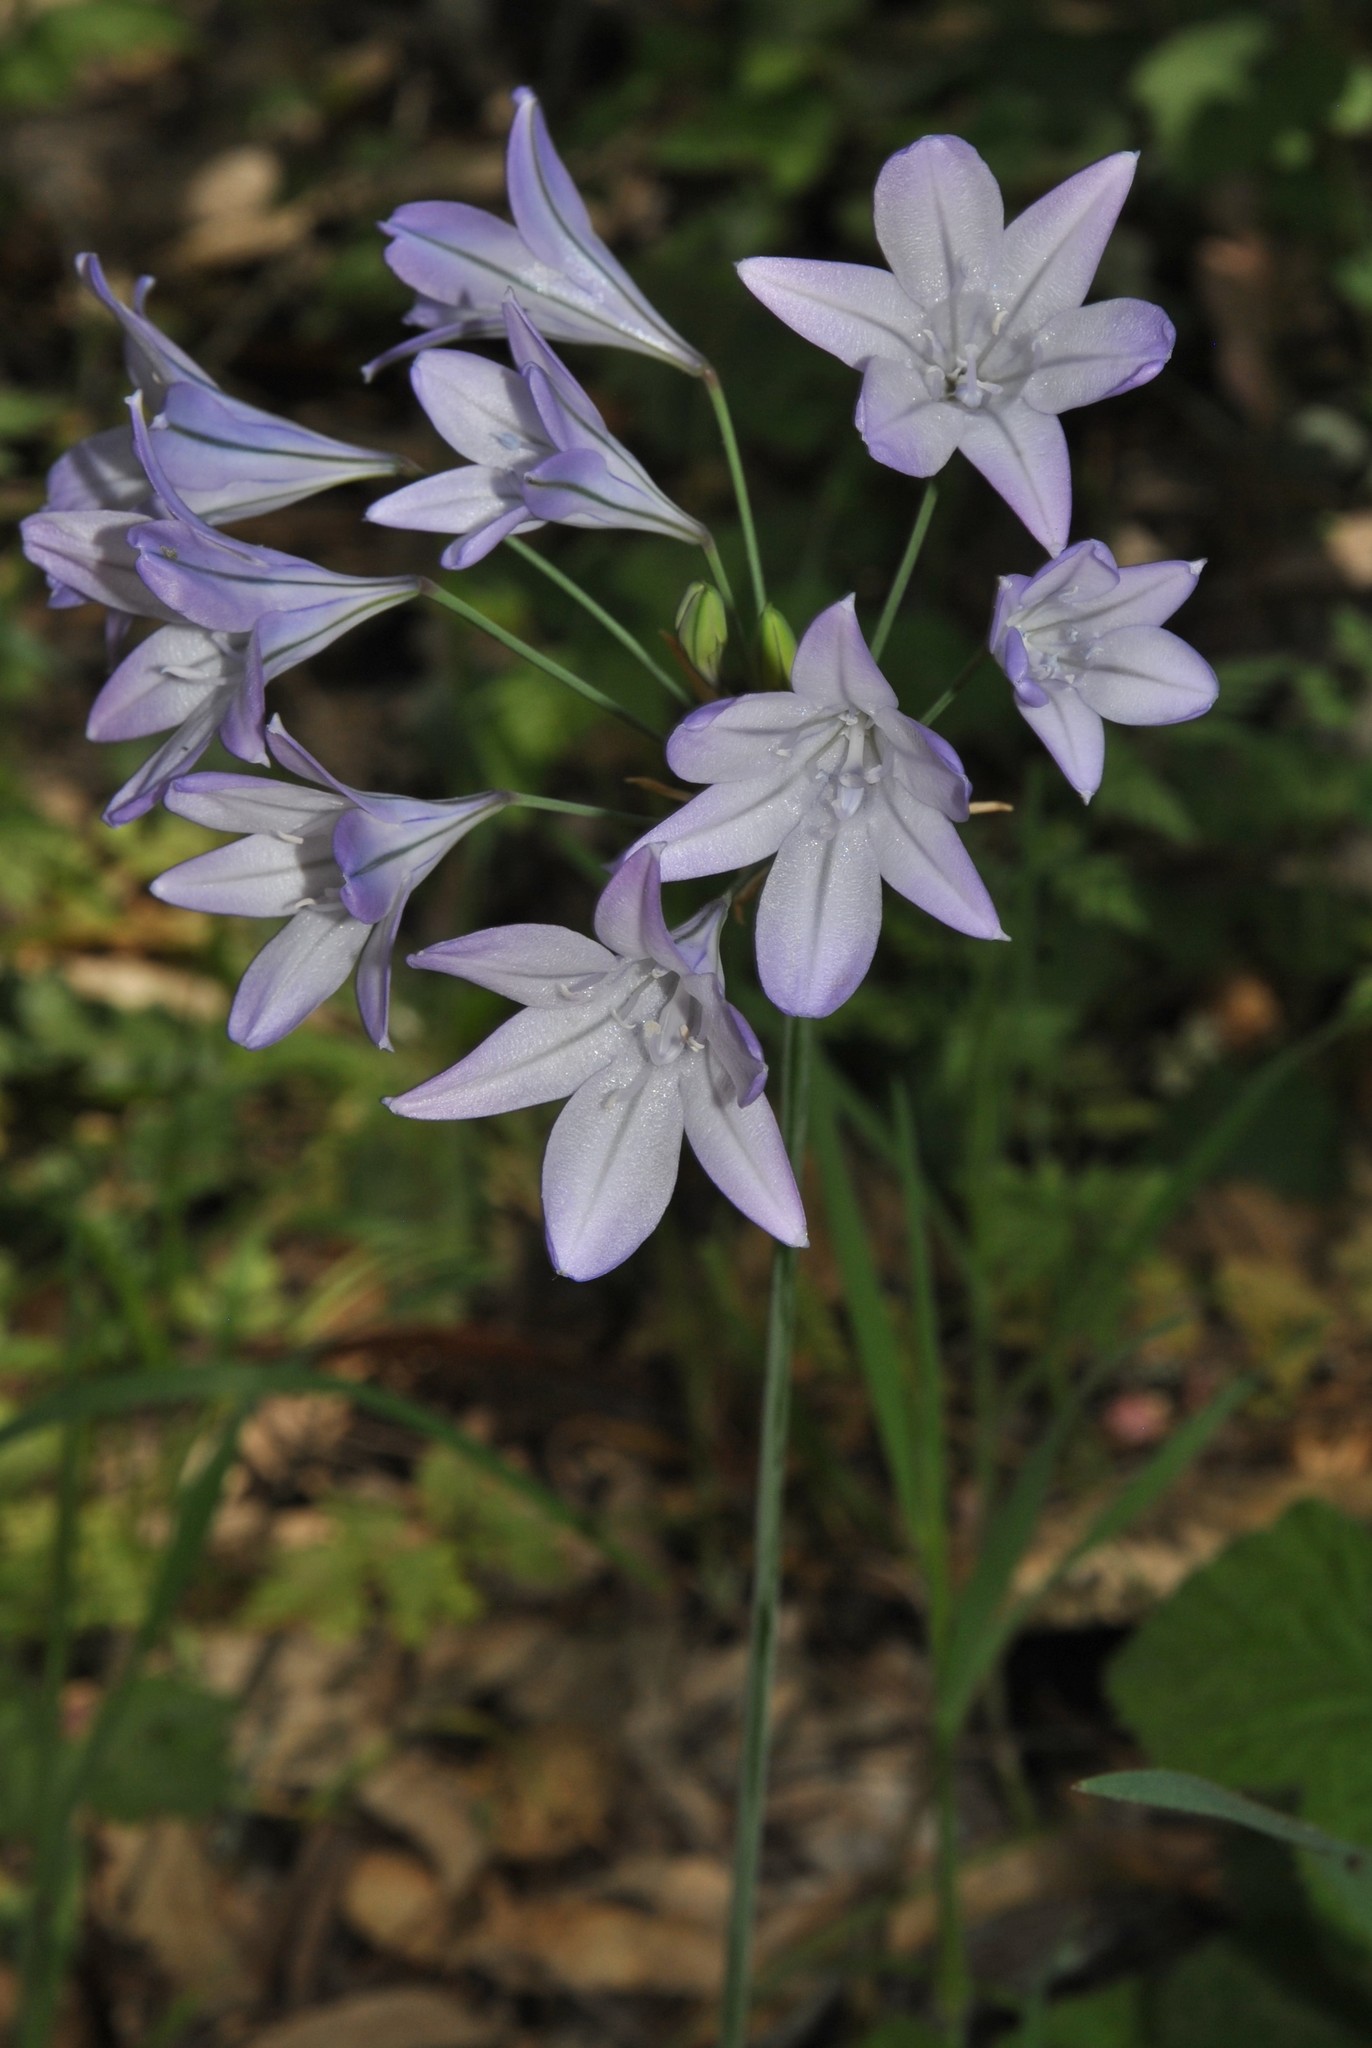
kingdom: Plantae
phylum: Tracheophyta
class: Liliopsida
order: Asparagales
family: Asparagaceae
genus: Triteleia
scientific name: Triteleia laxa
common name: Triplet-lily
